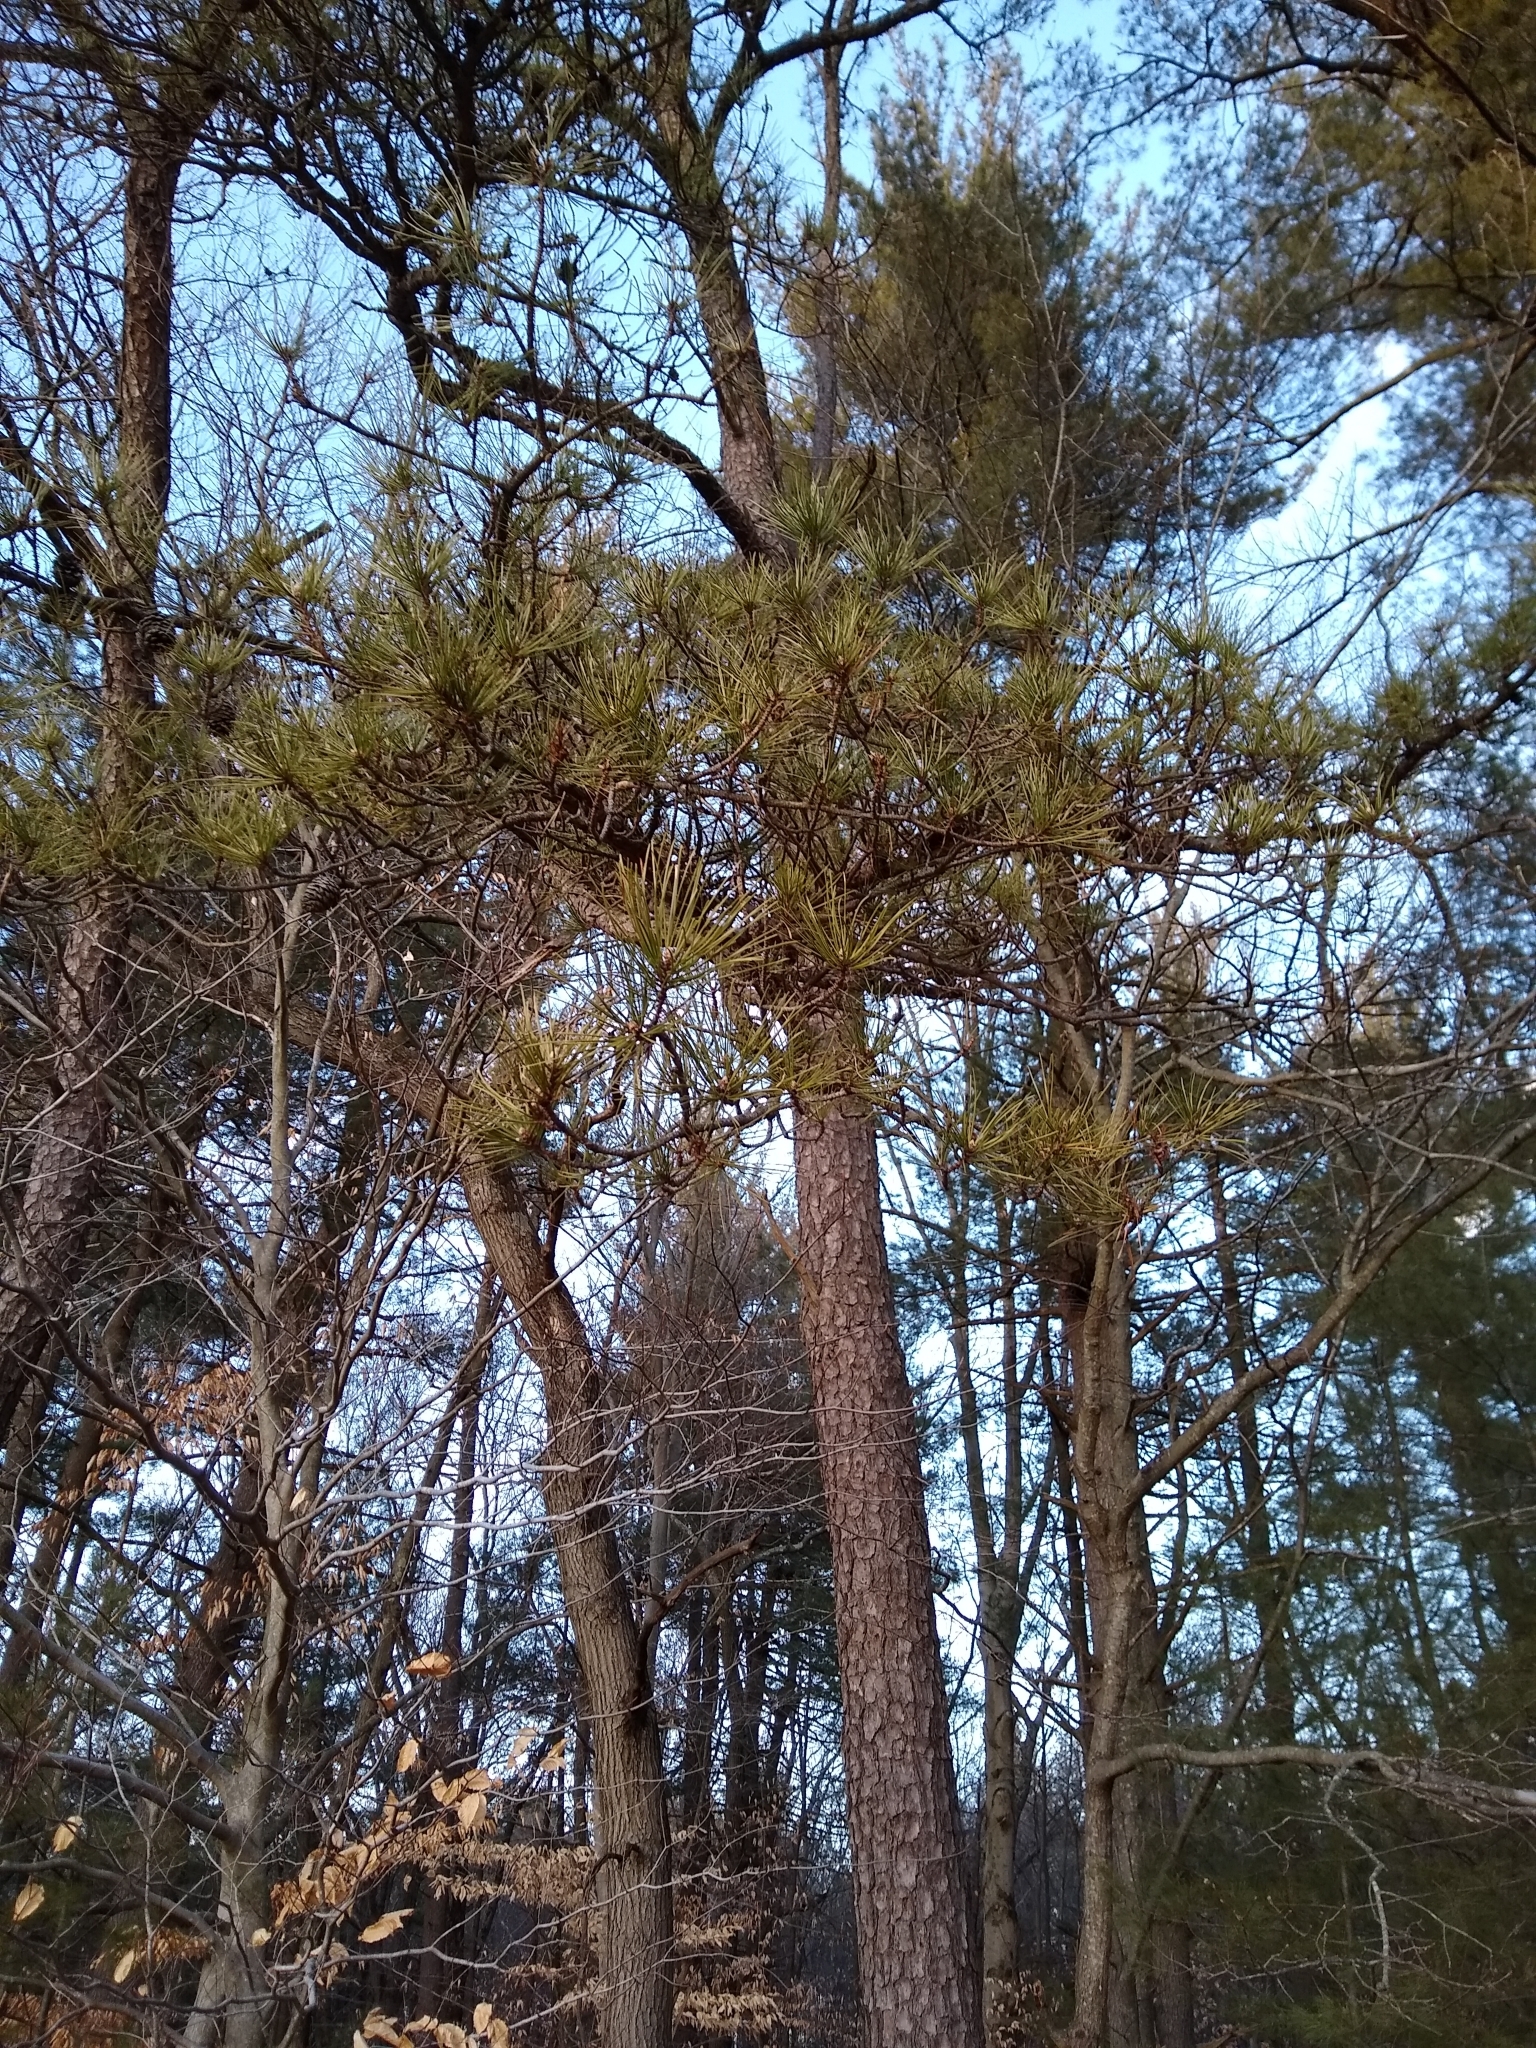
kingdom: Plantae
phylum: Tracheophyta
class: Pinopsida
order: Pinales
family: Pinaceae
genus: Pinus
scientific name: Pinus rigida
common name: Pitch pine
